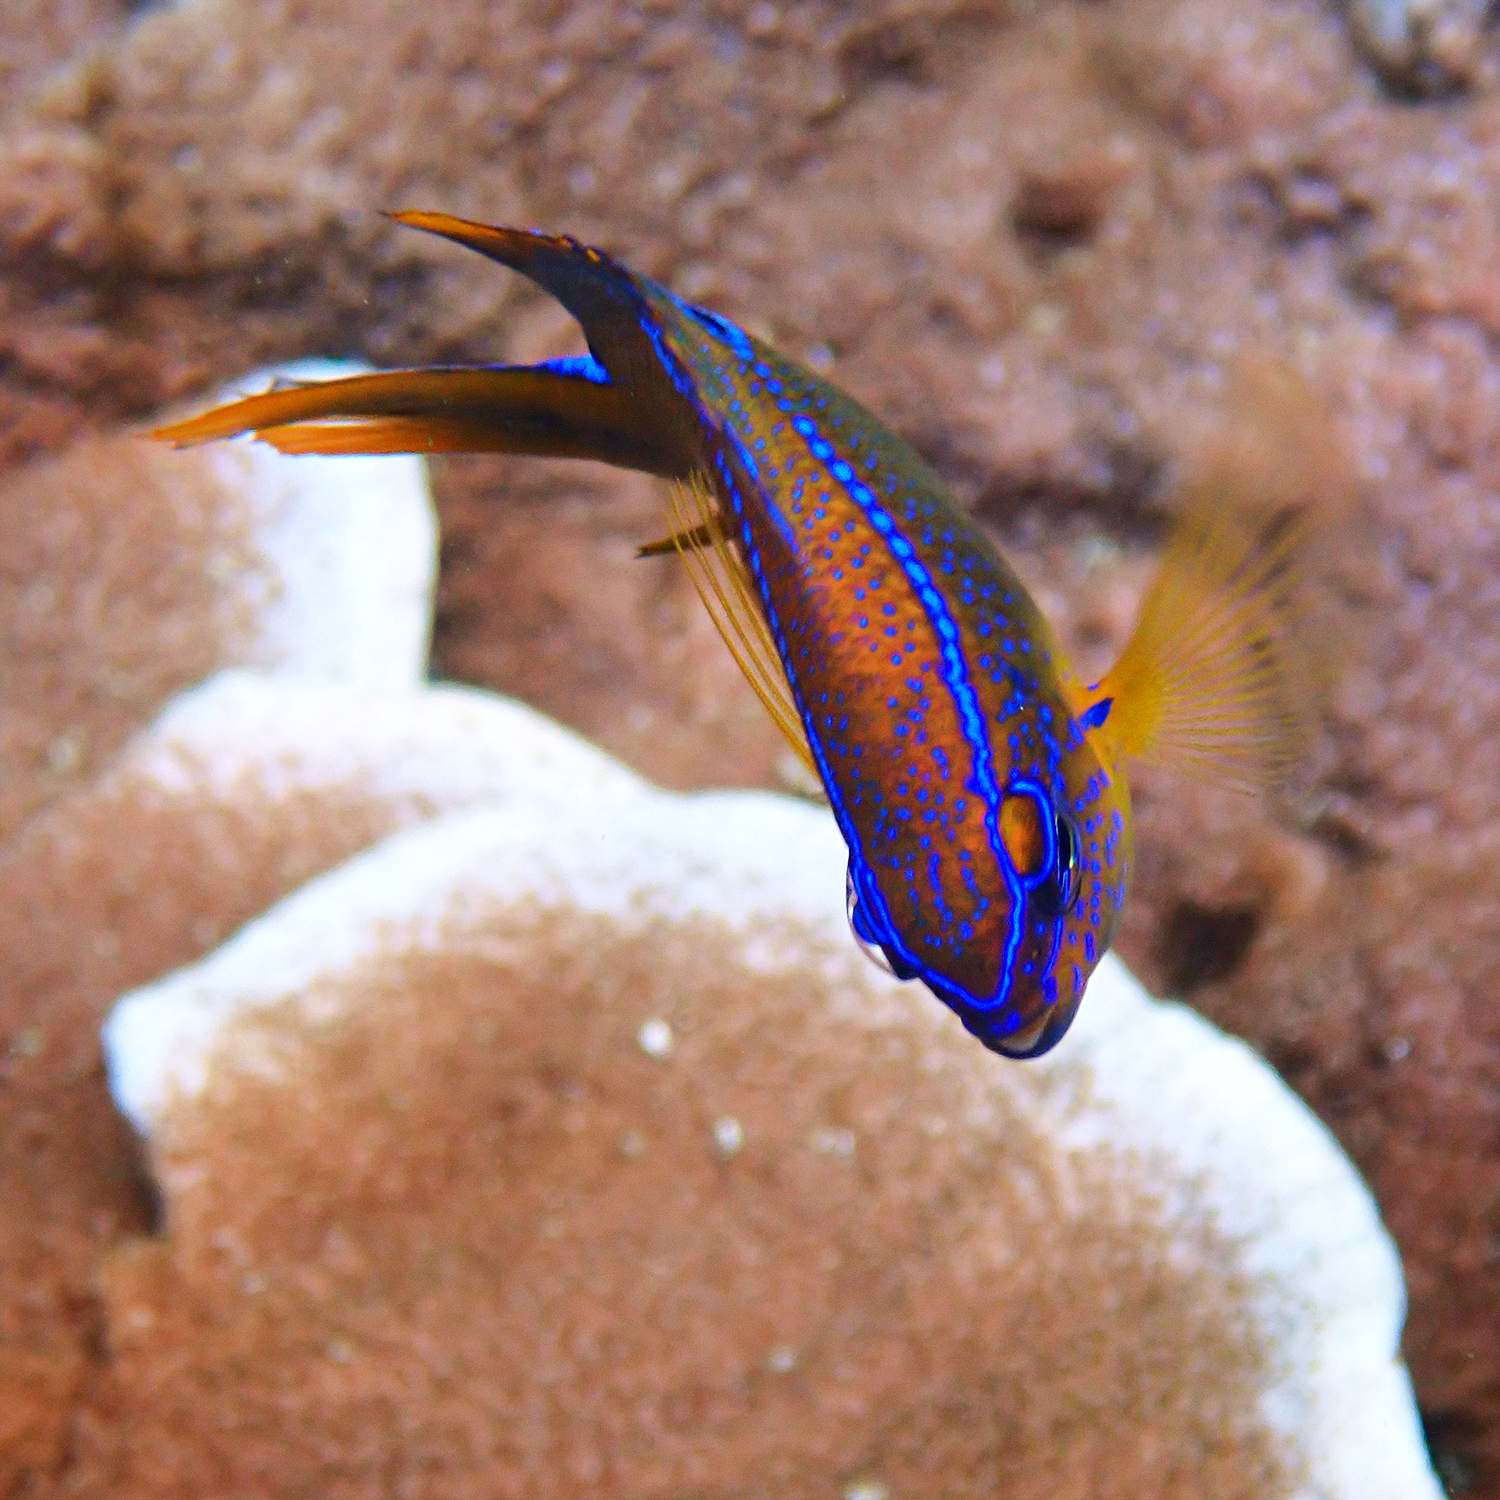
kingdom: Animalia
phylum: Chordata
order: Perciformes
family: Pomacentridae
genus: Neoglyphidodon
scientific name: Neoglyphidodon polyacanthus
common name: Multi-spined damsel
